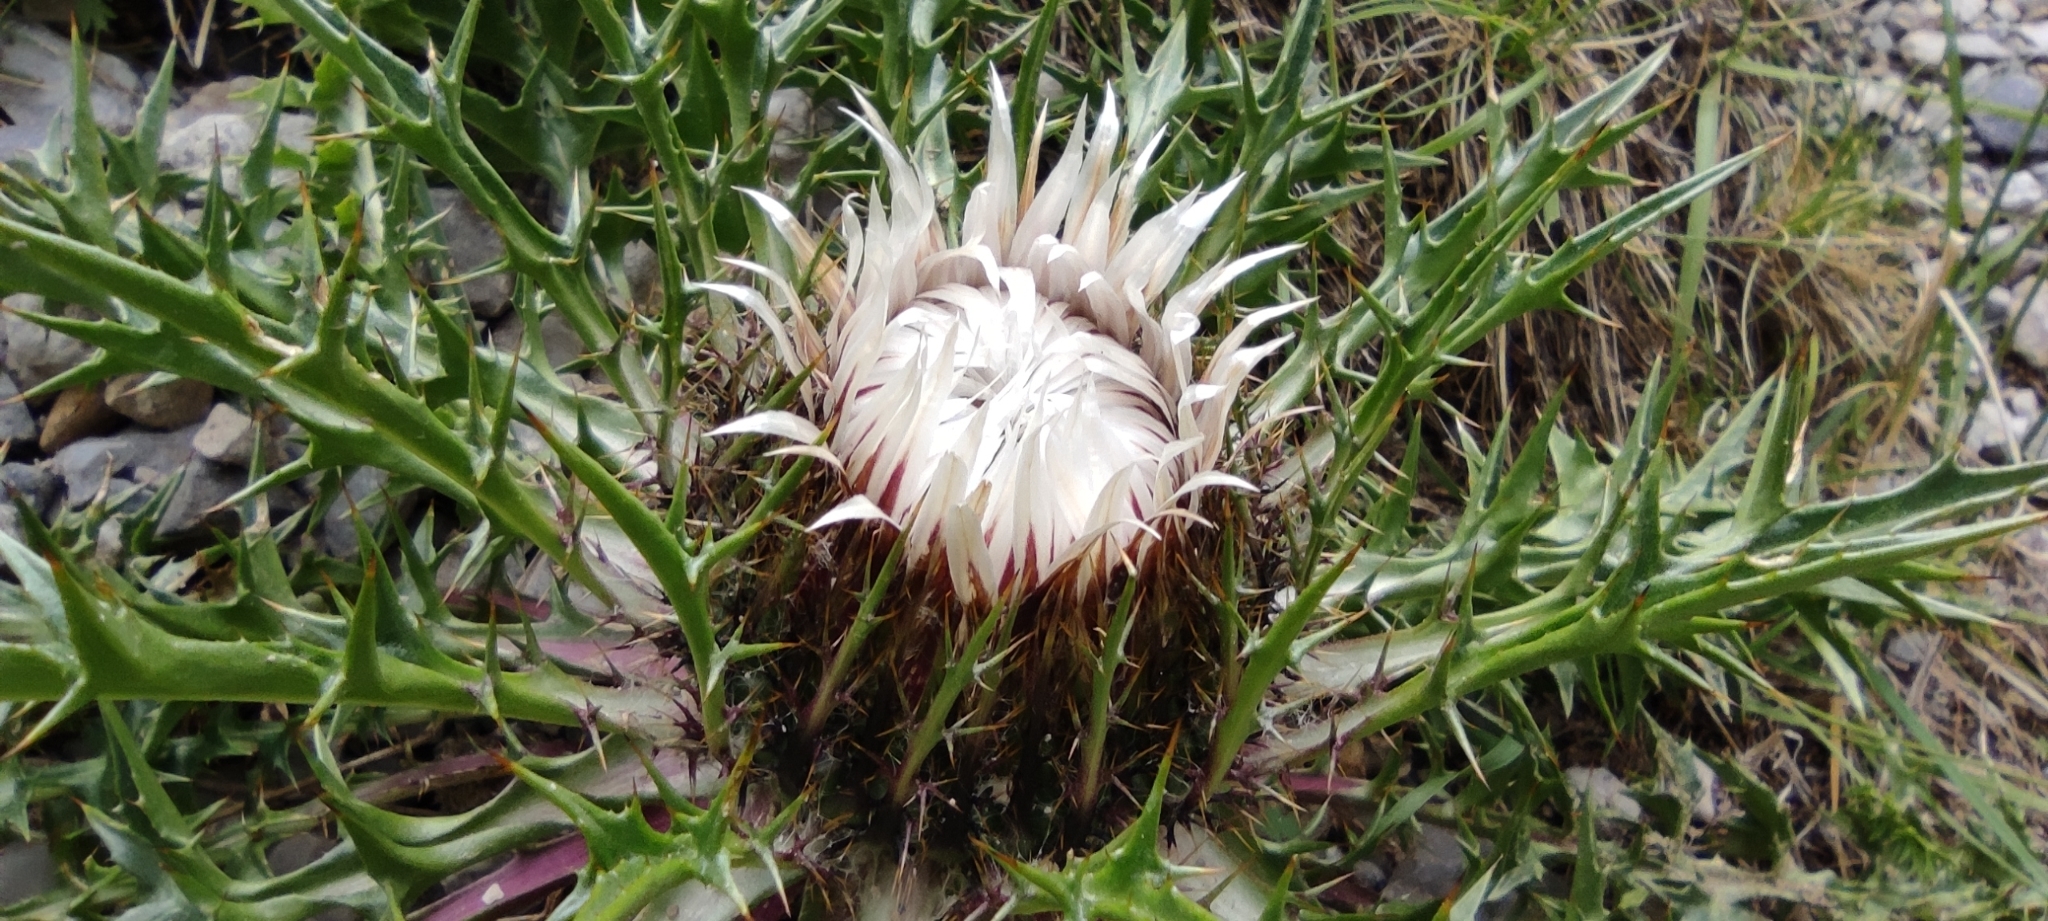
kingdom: Plantae
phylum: Tracheophyta
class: Magnoliopsida
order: Asterales
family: Asteraceae
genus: Carlina
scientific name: Carlina acaulis
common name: Stemless carline thistle
